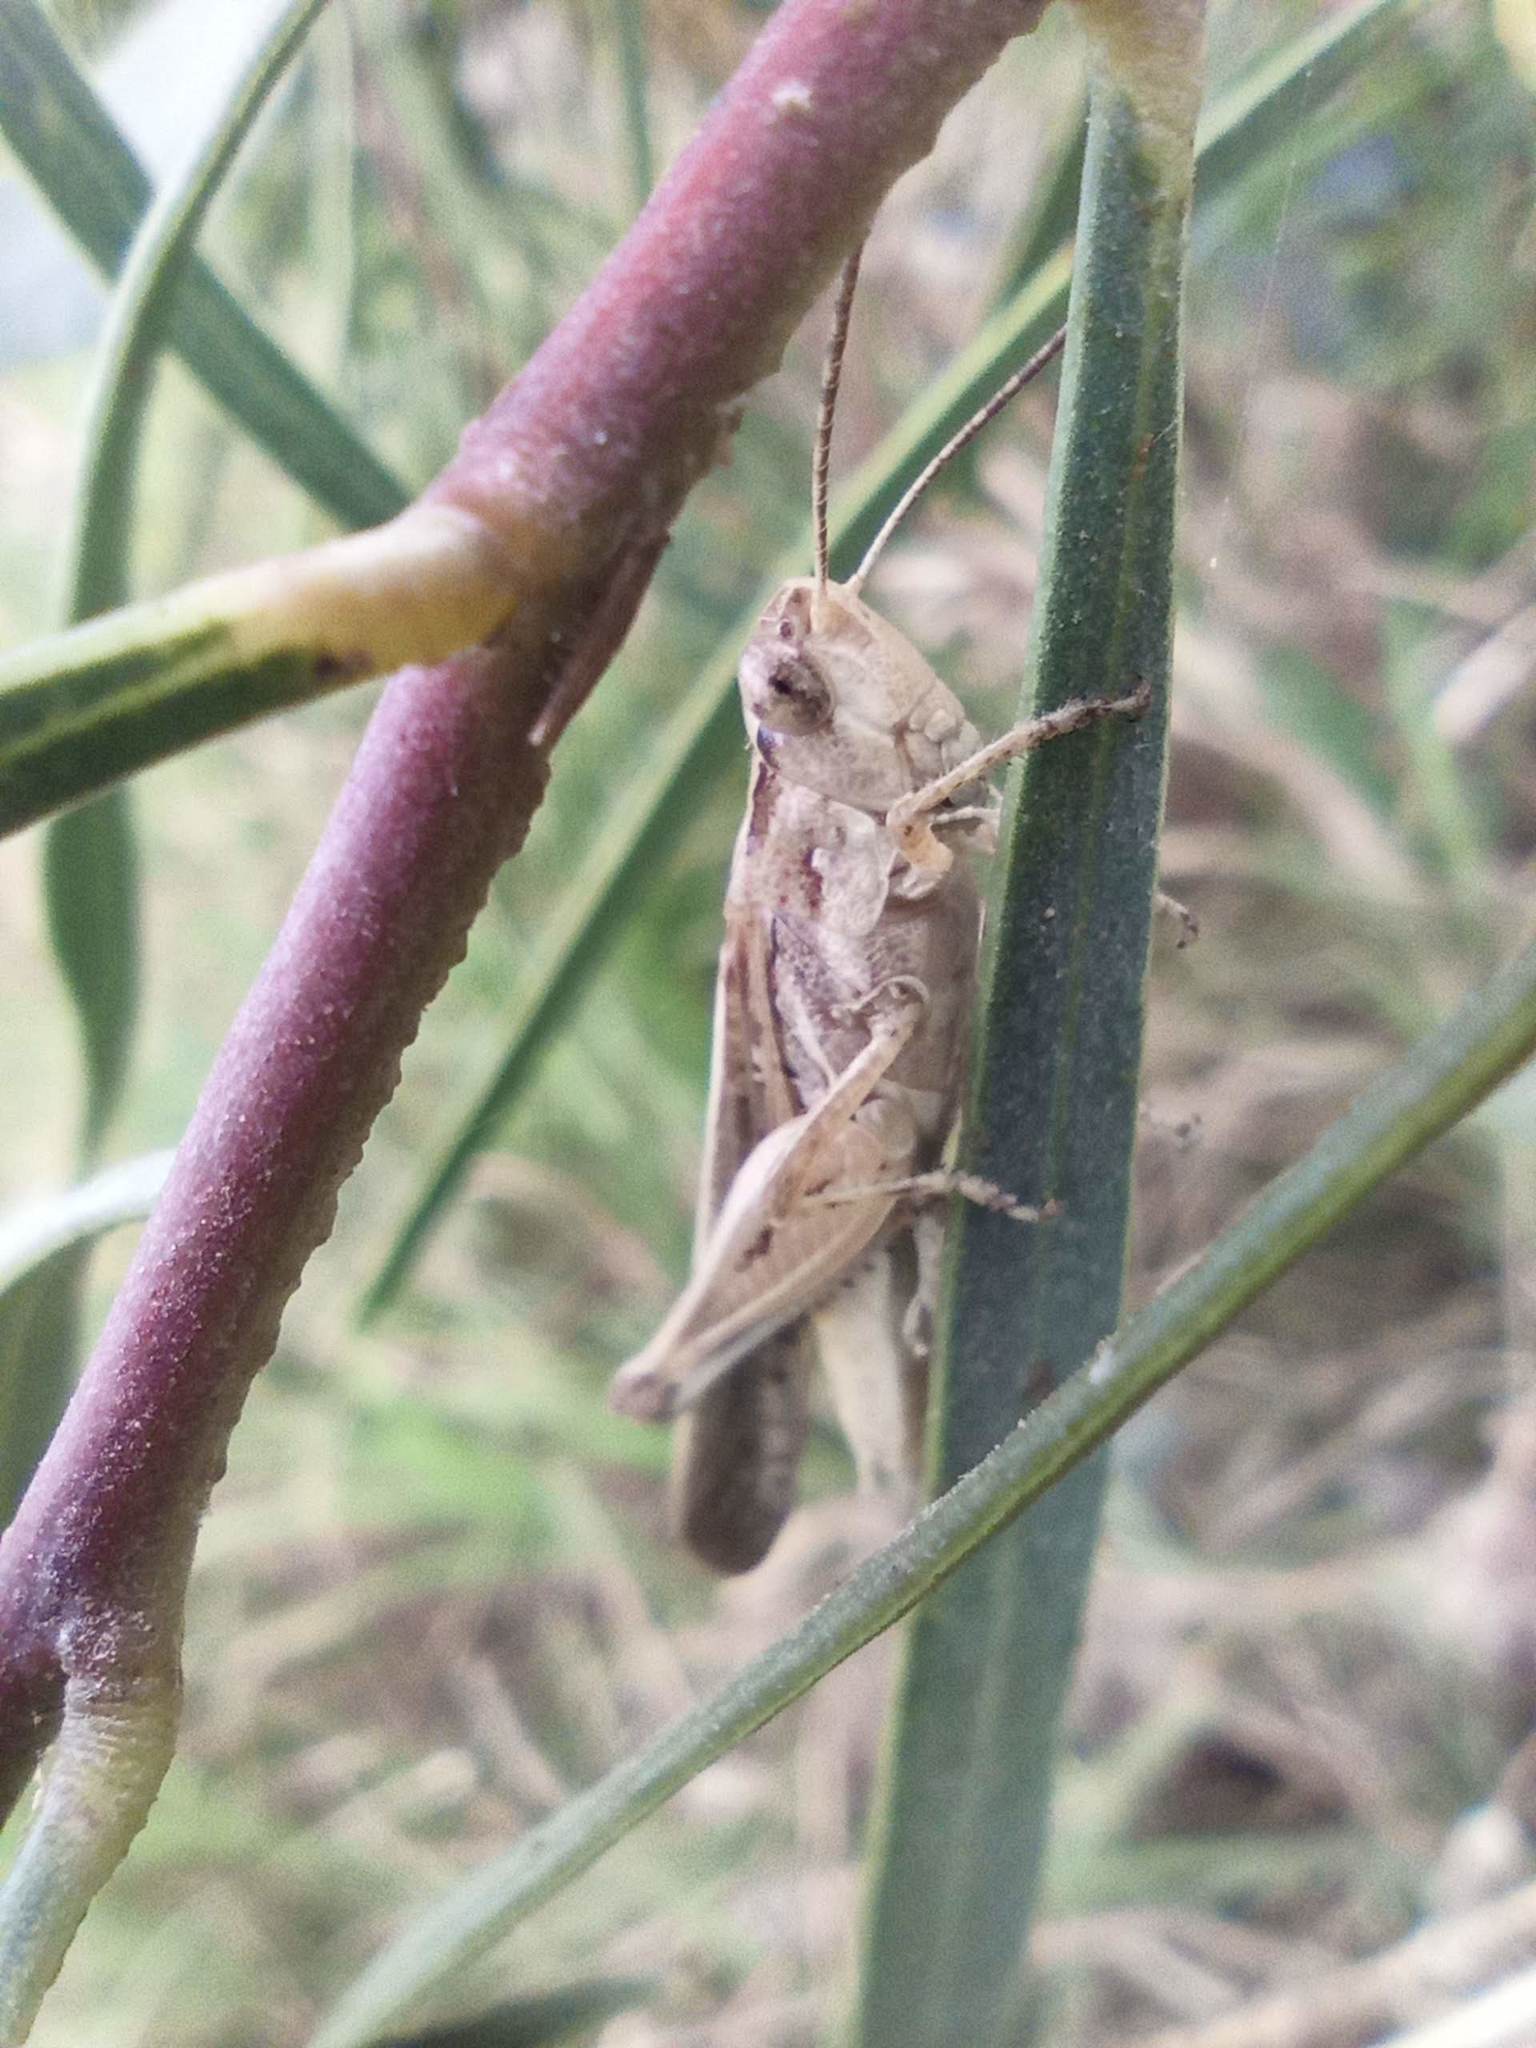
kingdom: Animalia
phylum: Arthropoda
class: Insecta
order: Orthoptera
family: Acrididae
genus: Aiolopus
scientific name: Aiolopus thalassinus
